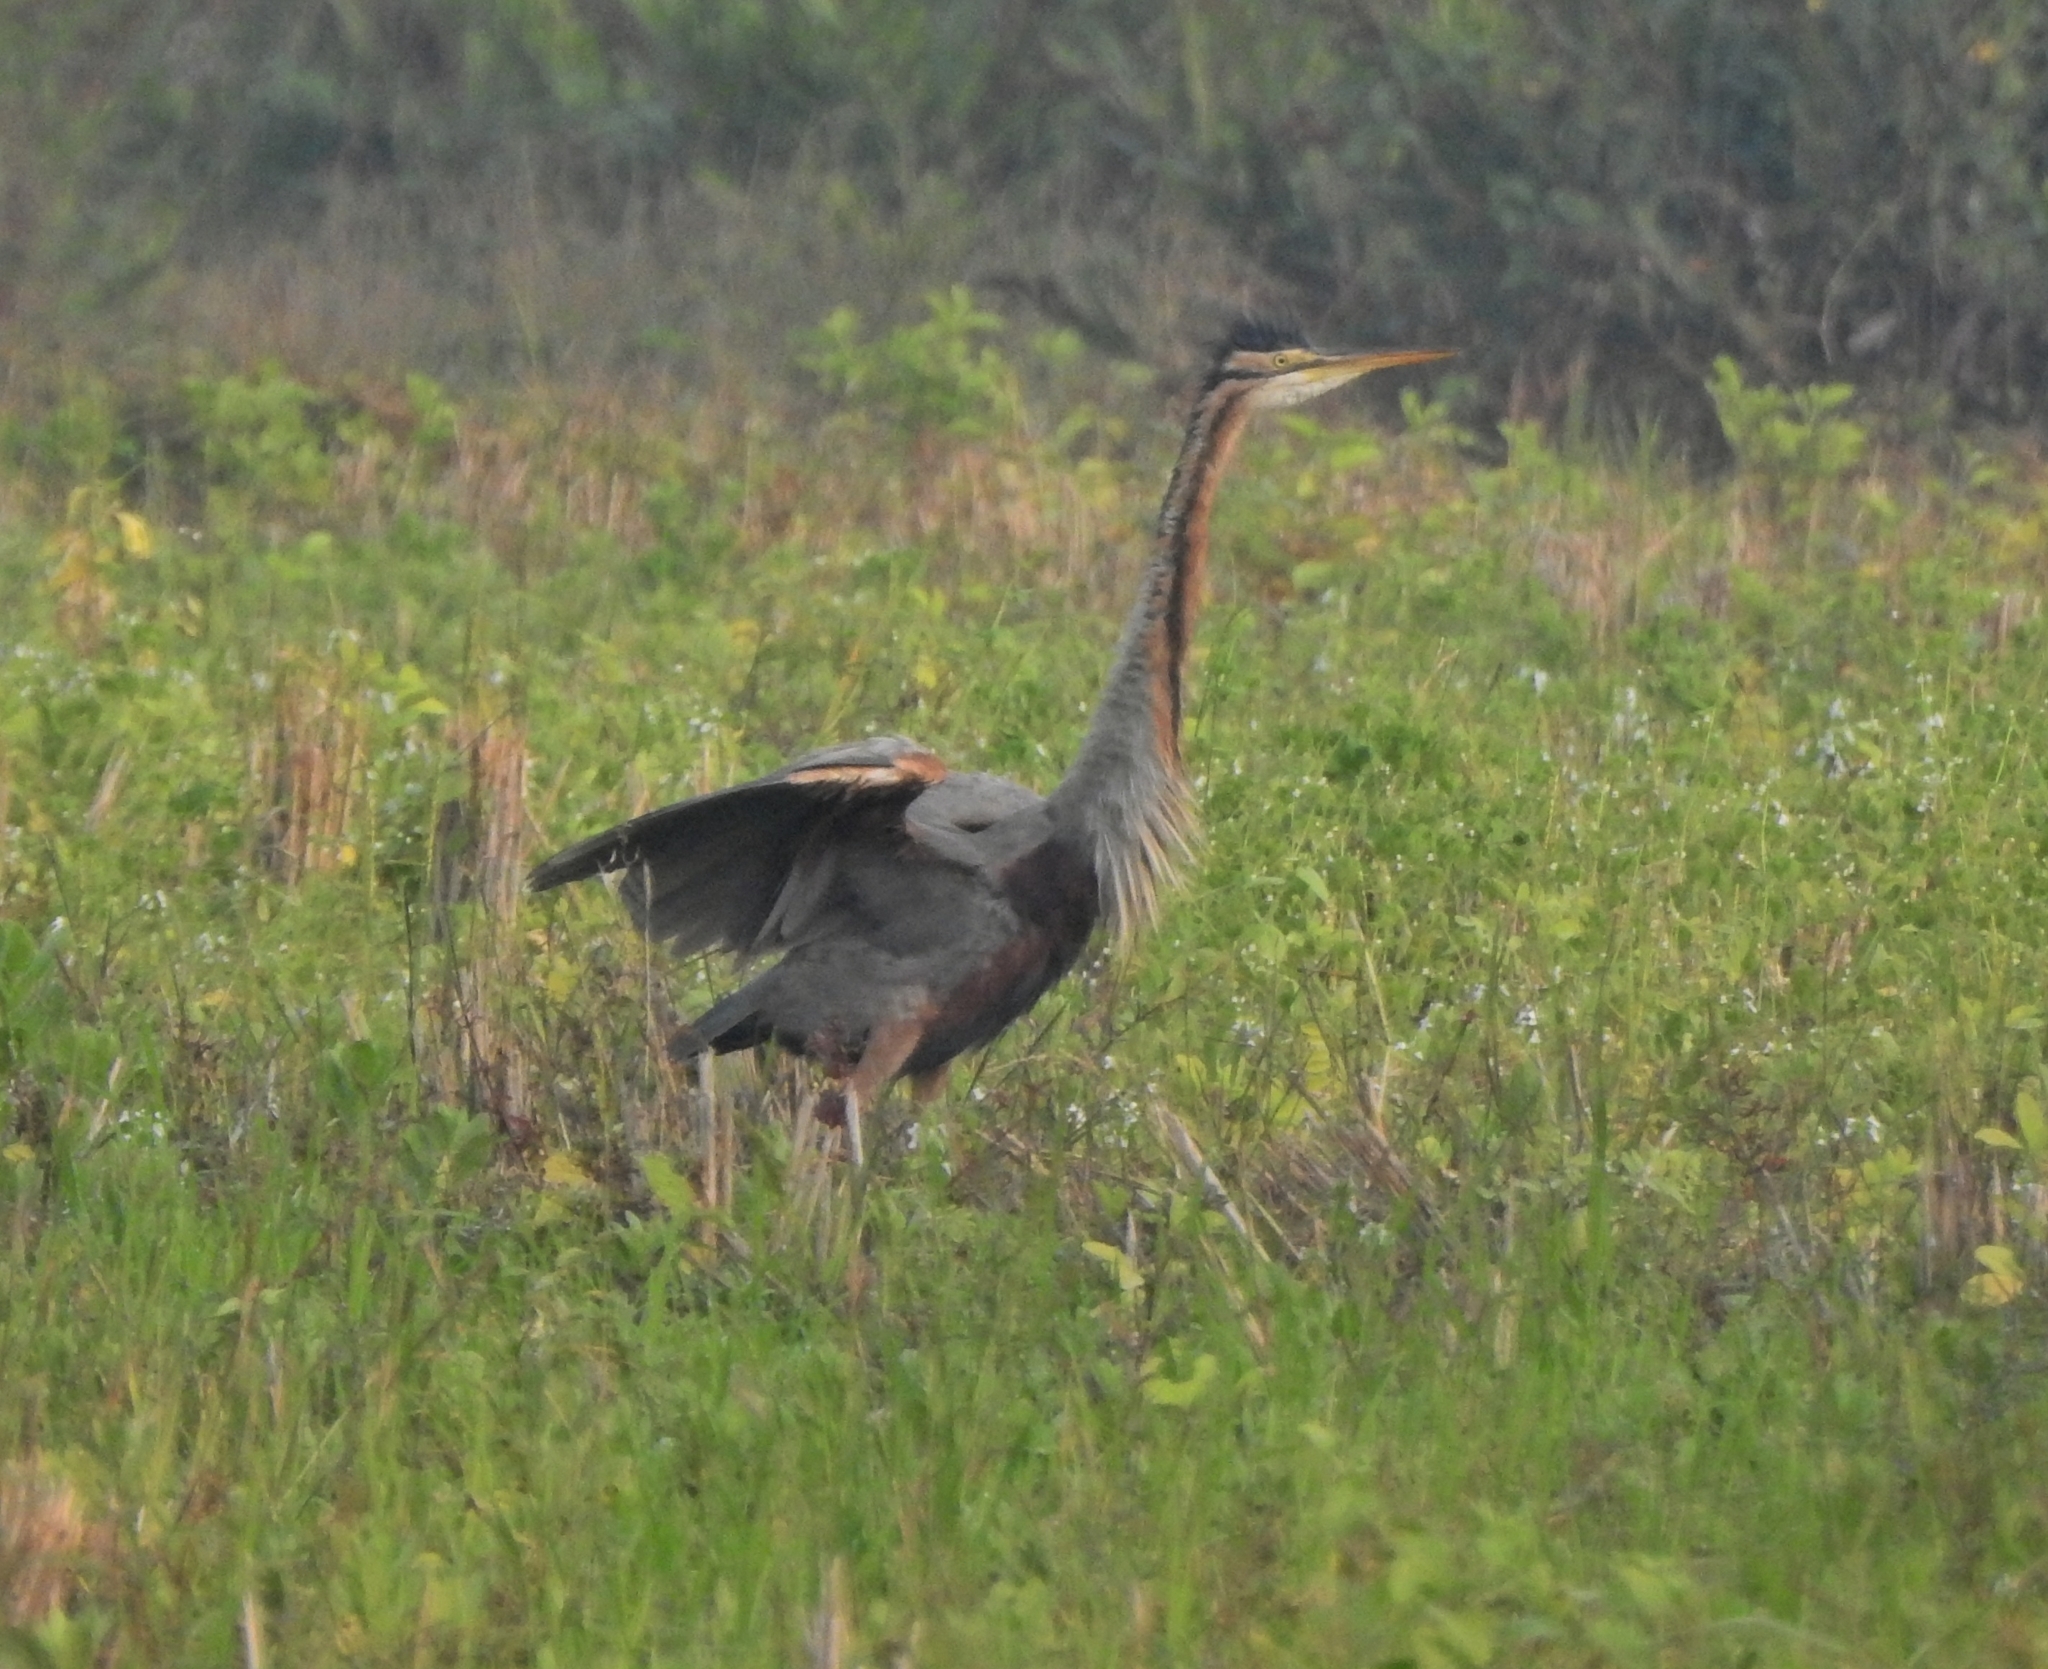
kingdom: Animalia
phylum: Chordata
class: Aves
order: Pelecaniformes
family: Ardeidae
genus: Ardea
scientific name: Ardea purpurea
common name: Purple heron
